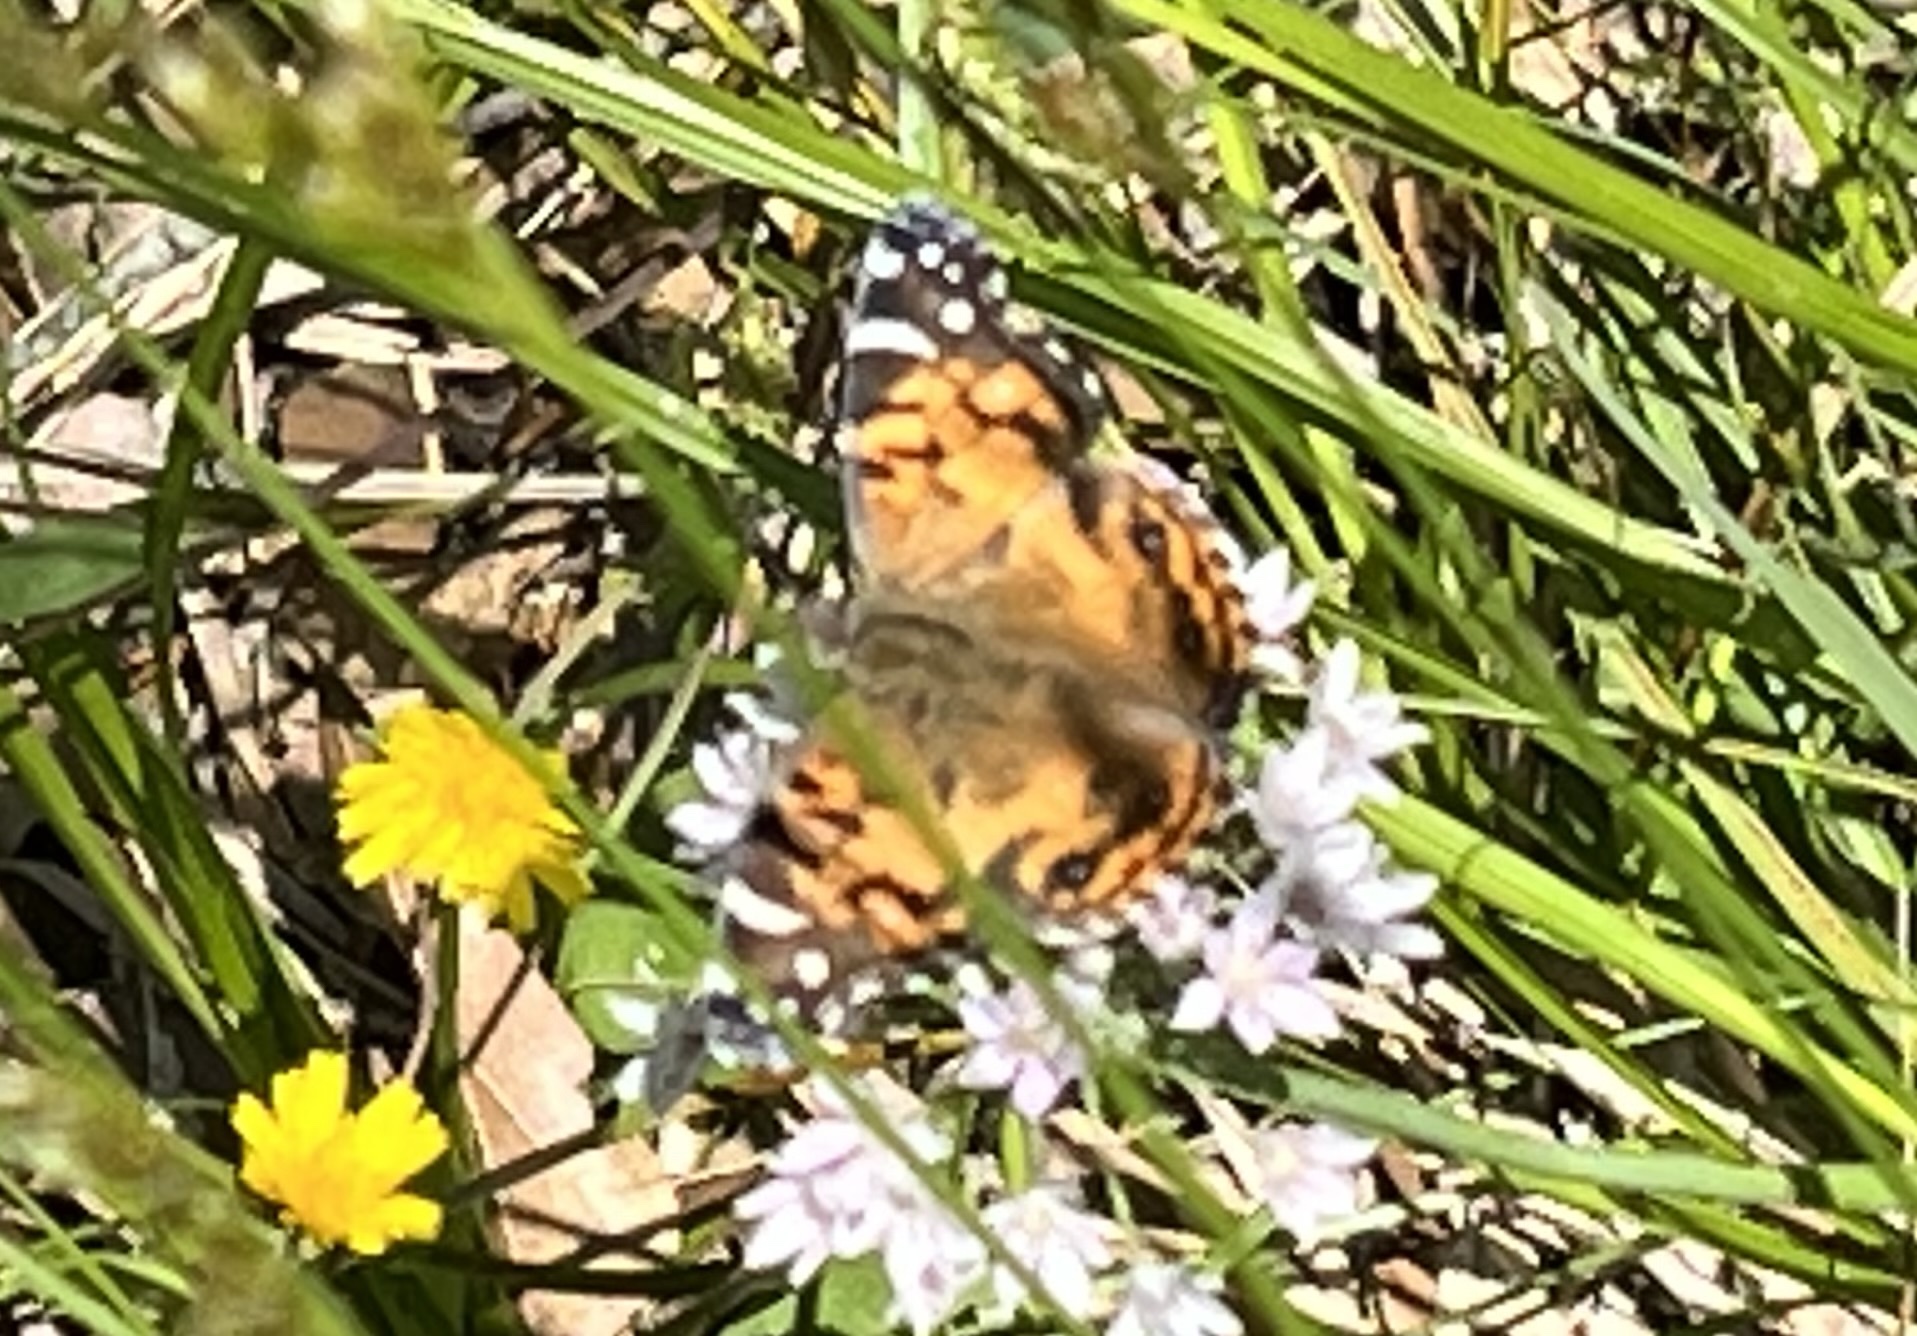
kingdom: Animalia
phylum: Arthropoda
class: Insecta
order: Lepidoptera
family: Nymphalidae
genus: Vanessa
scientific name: Vanessa virginiensis
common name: American lady
